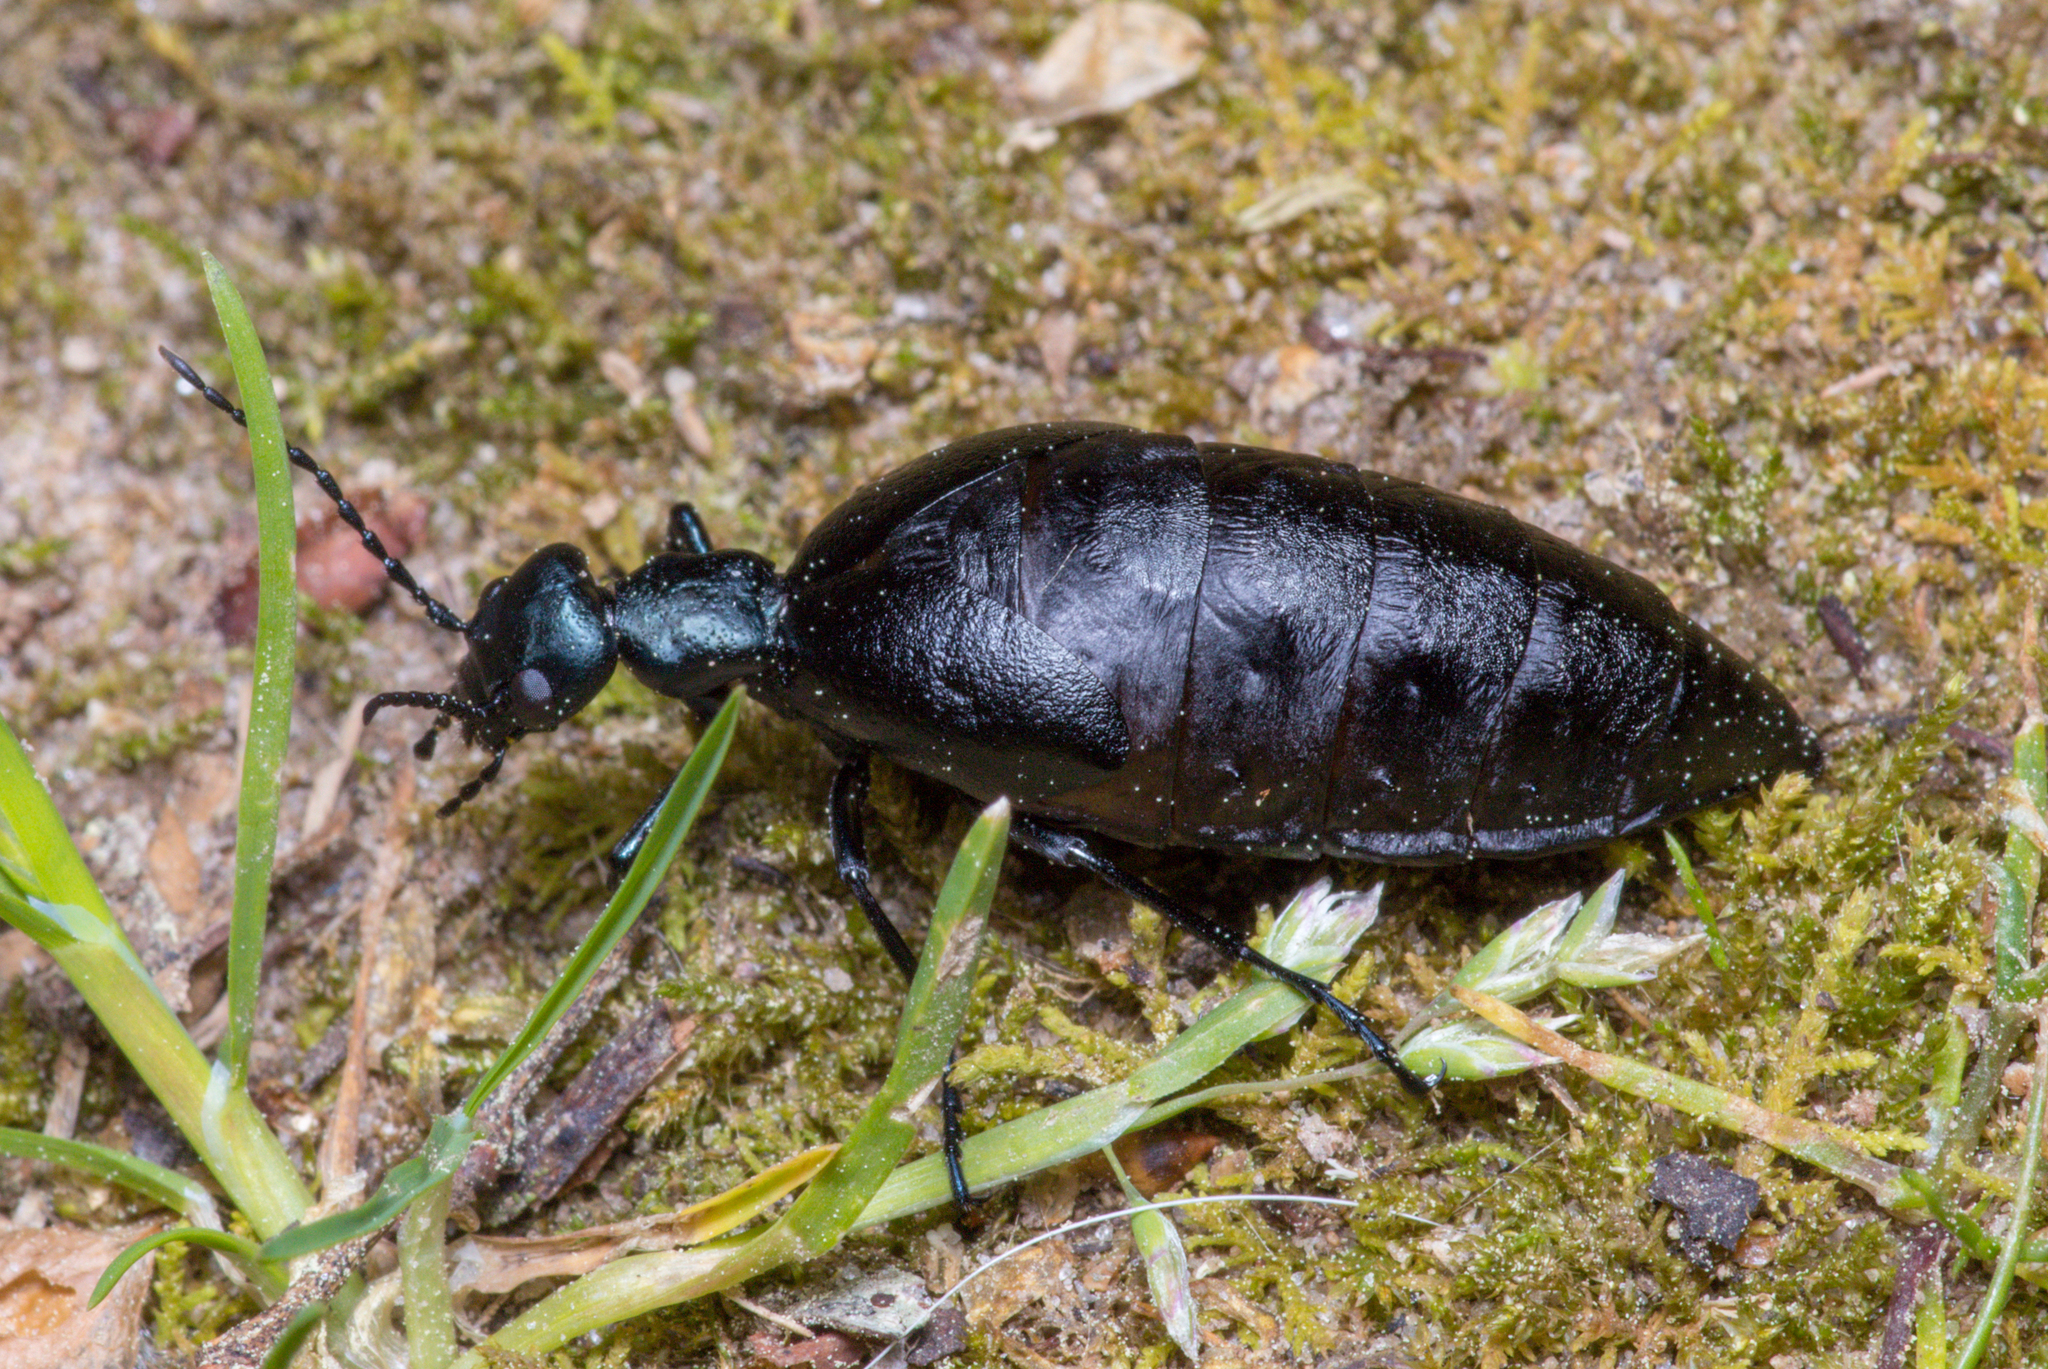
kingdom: Animalia
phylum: Arthropoda
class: Insecta
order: Coleoptera
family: Meloidae
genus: Meloe
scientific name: Meloe americanus
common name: Buttercup oil beetle
